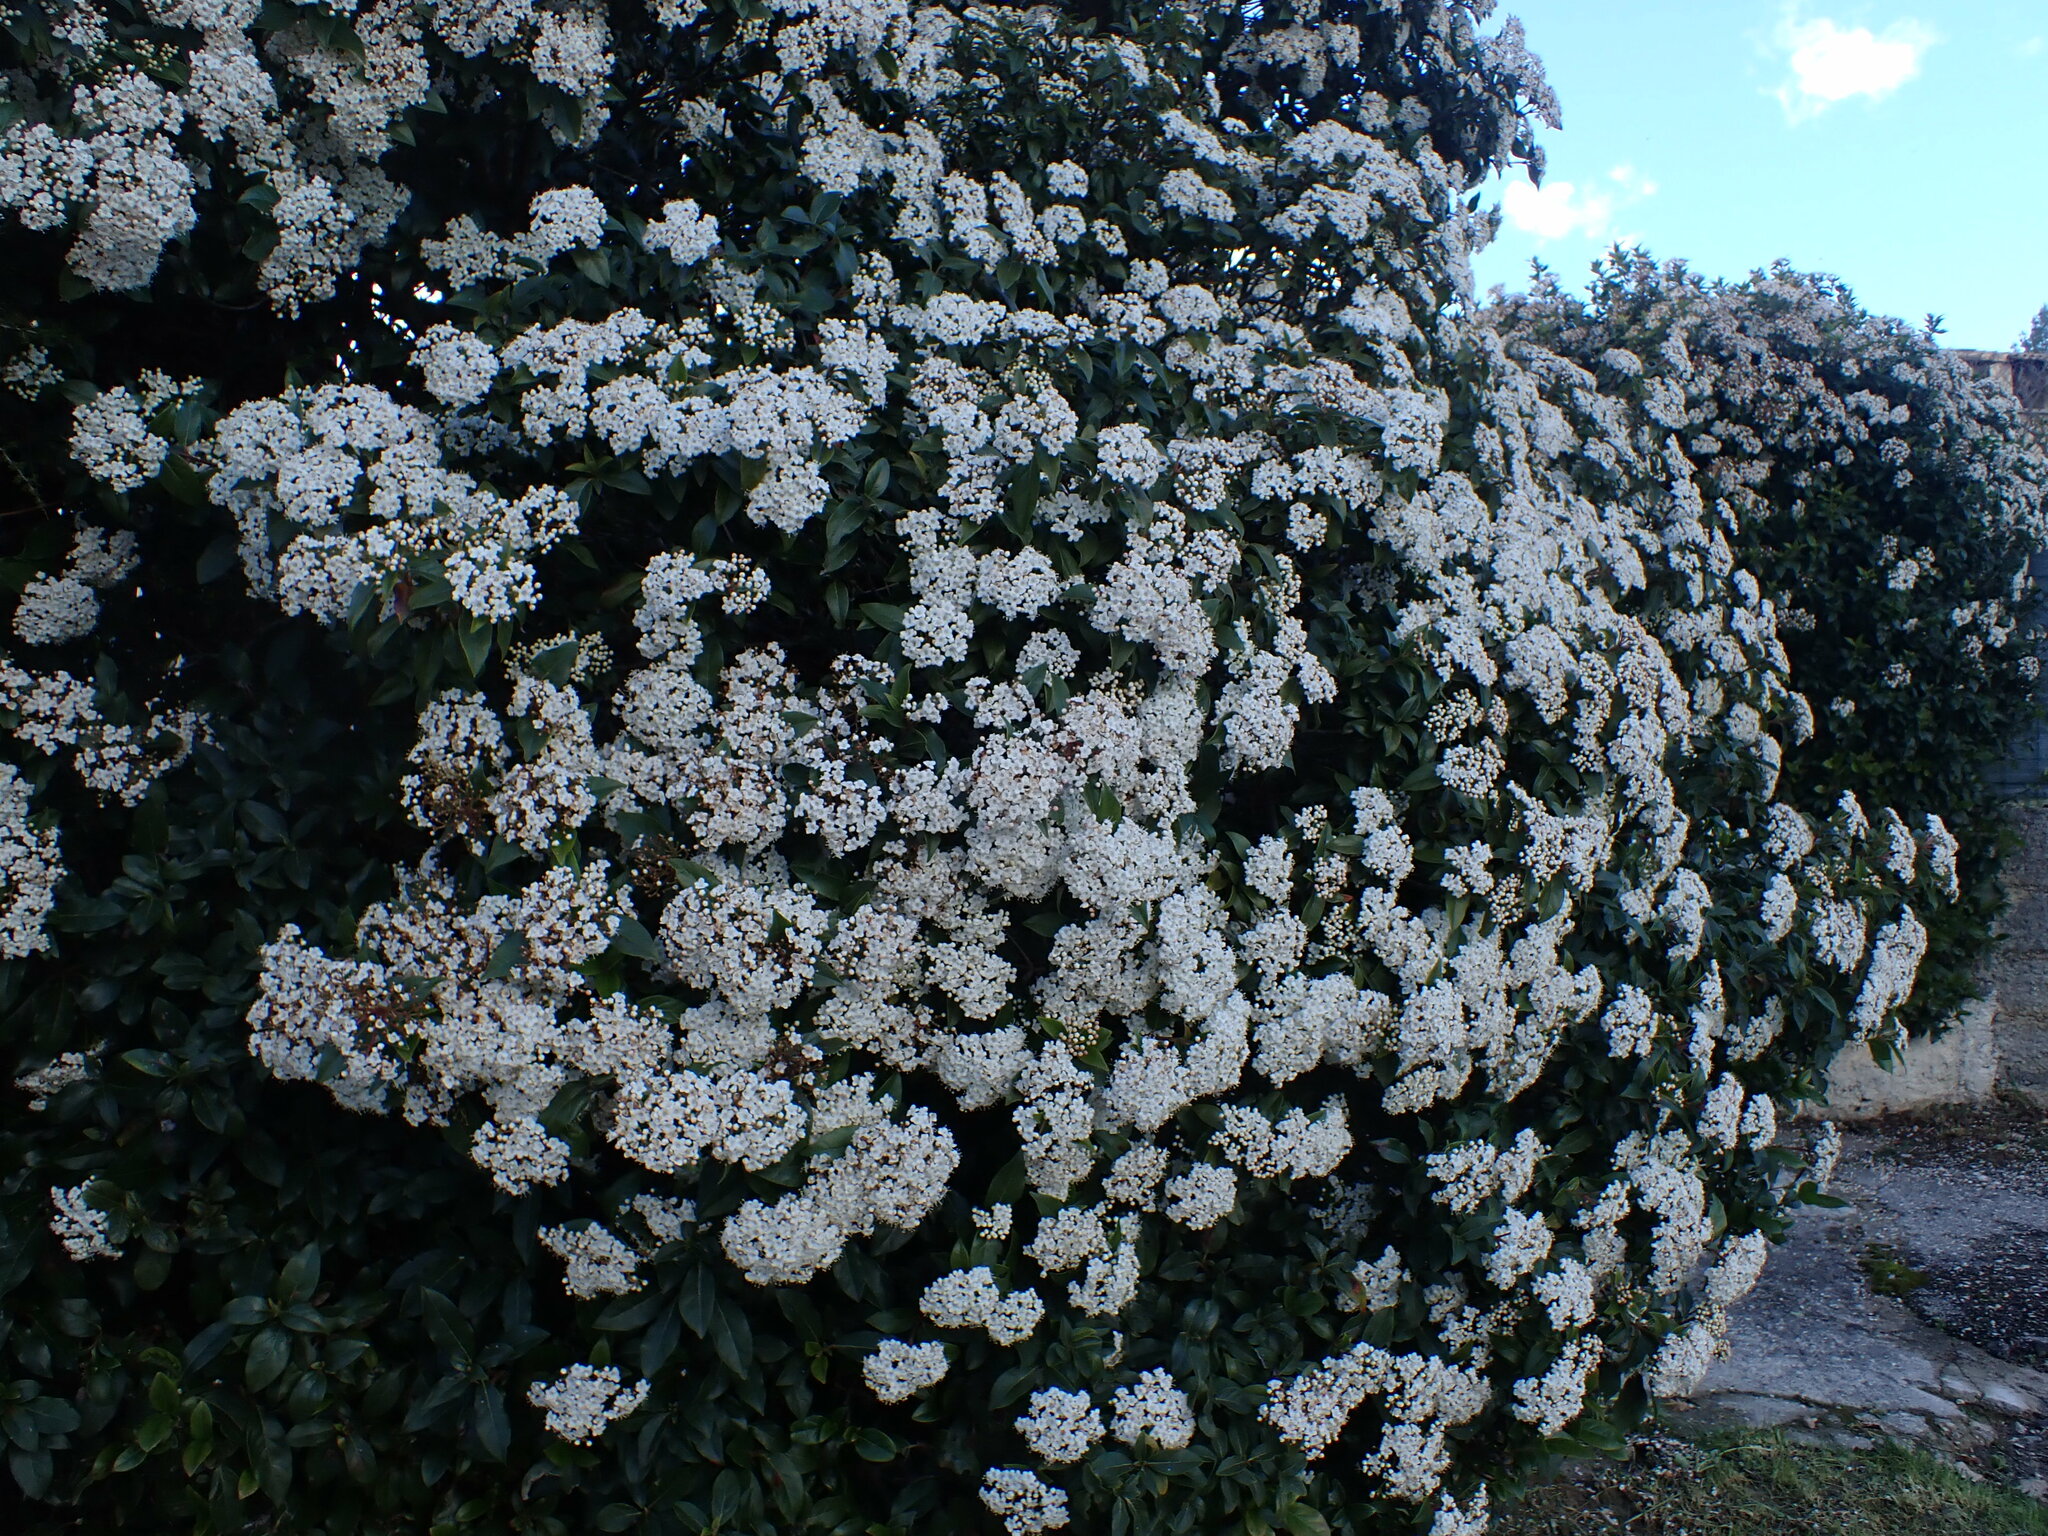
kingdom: Plantae
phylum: Tracheophyta
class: Magnoliopsida
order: Dipsacales
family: Viburnaceae
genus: Viburnum
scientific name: Viburnum tinus
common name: Laurustinus
